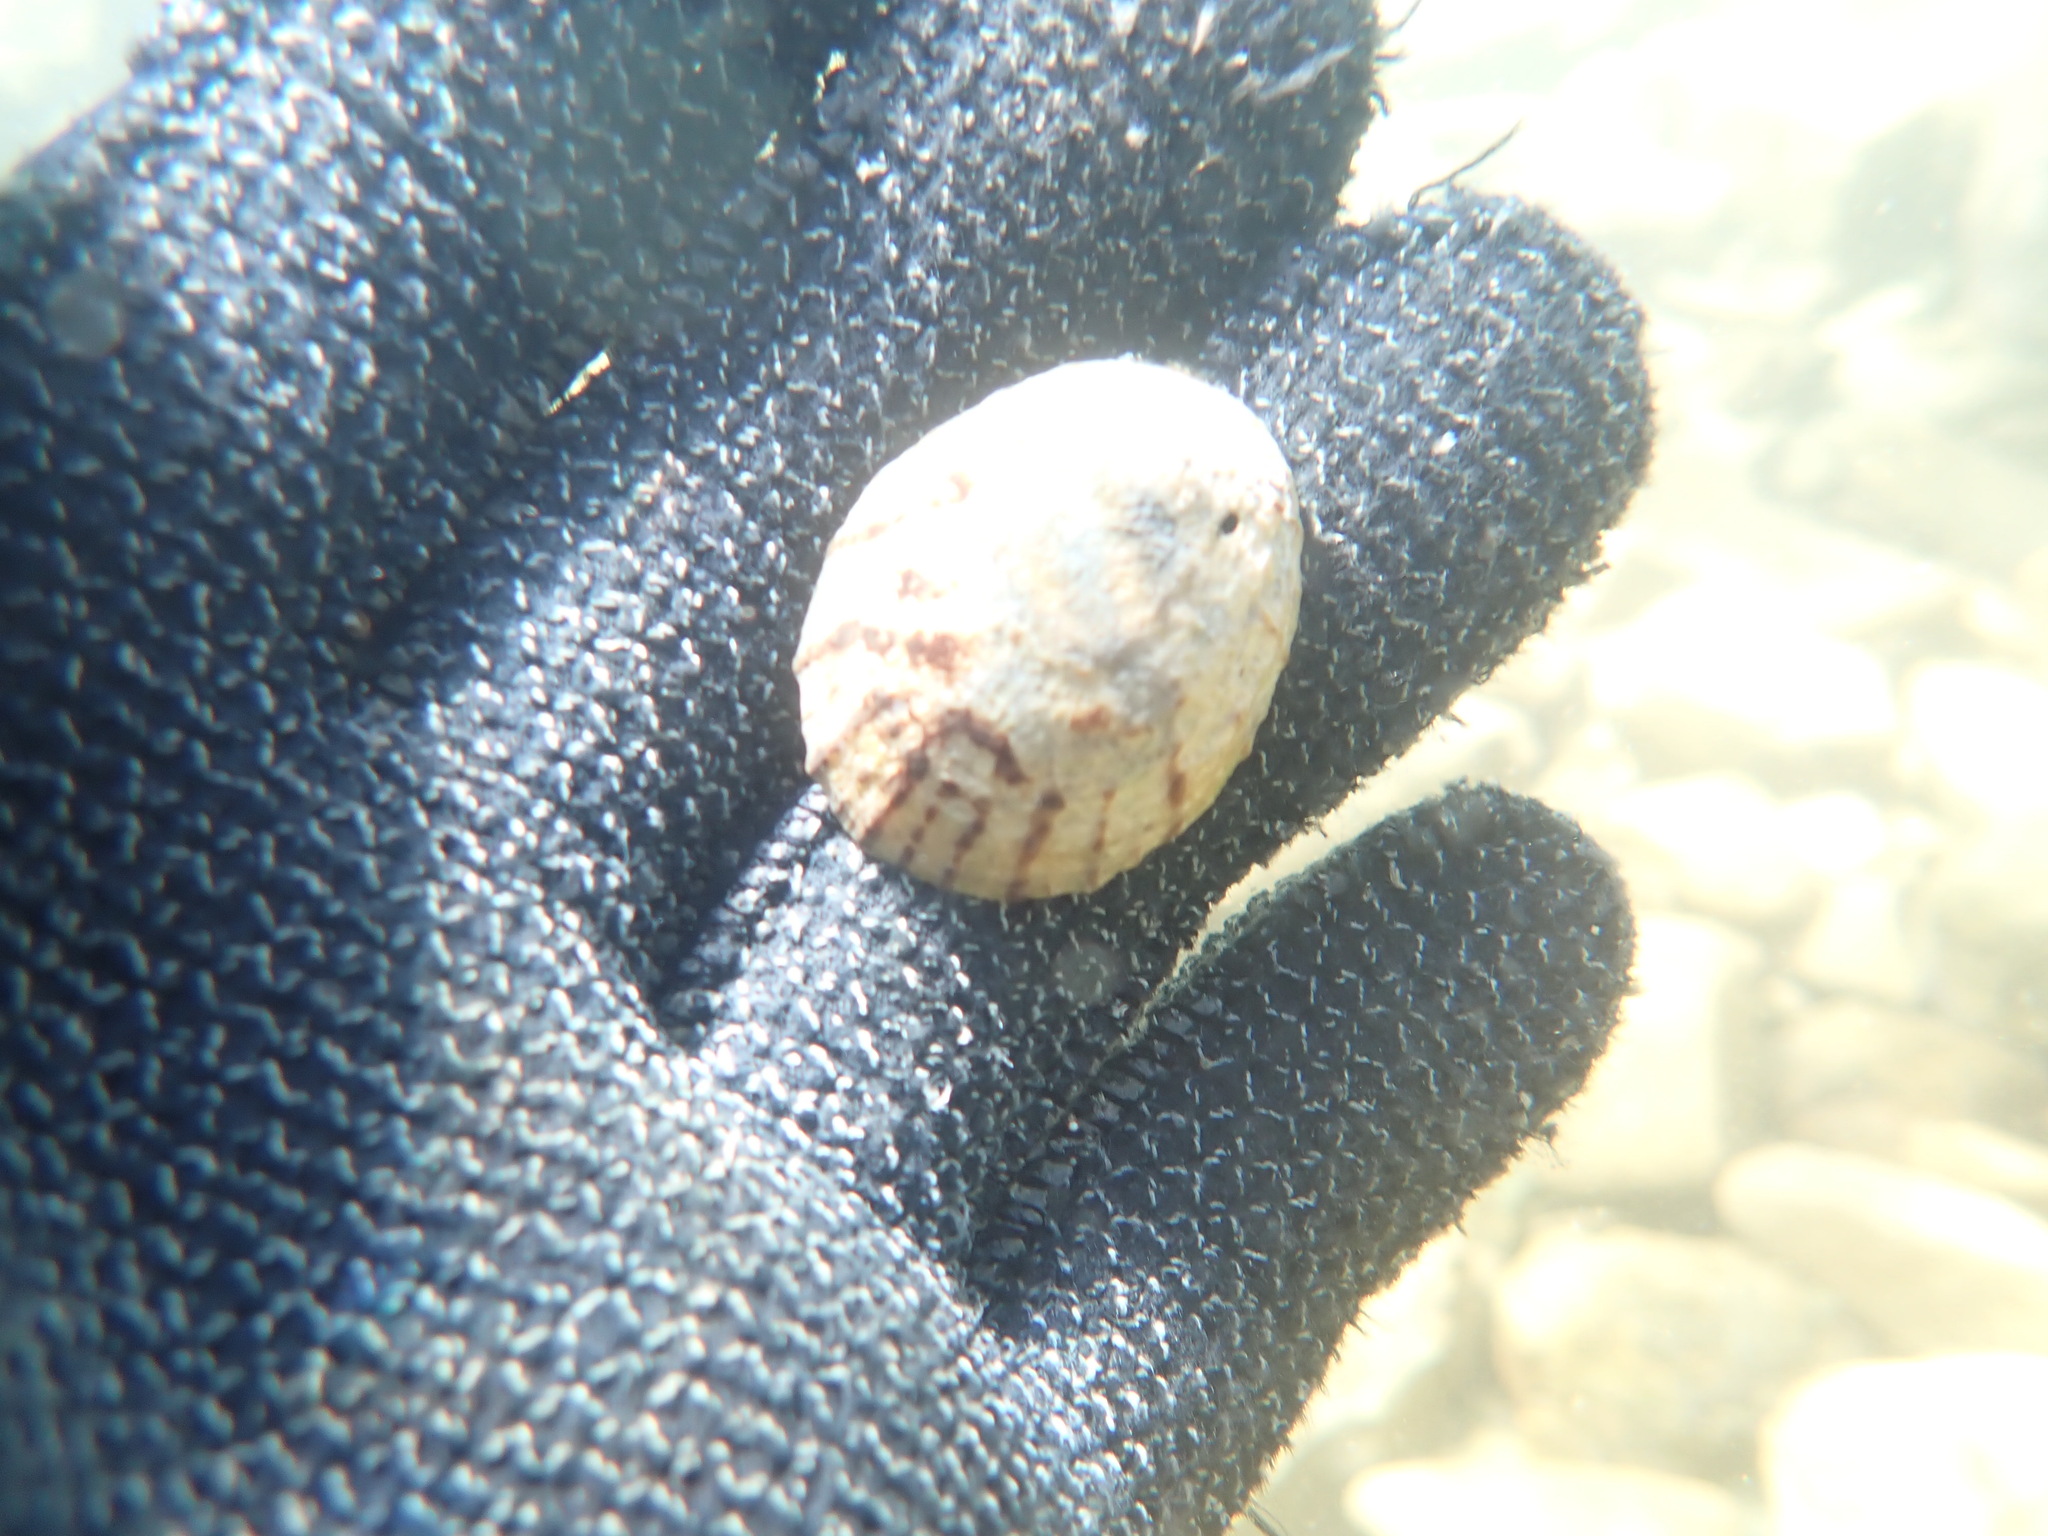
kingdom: Animalia
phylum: Mollusca
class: Gastropoda
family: Nacellidae
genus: Cellana
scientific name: Cellana radians
